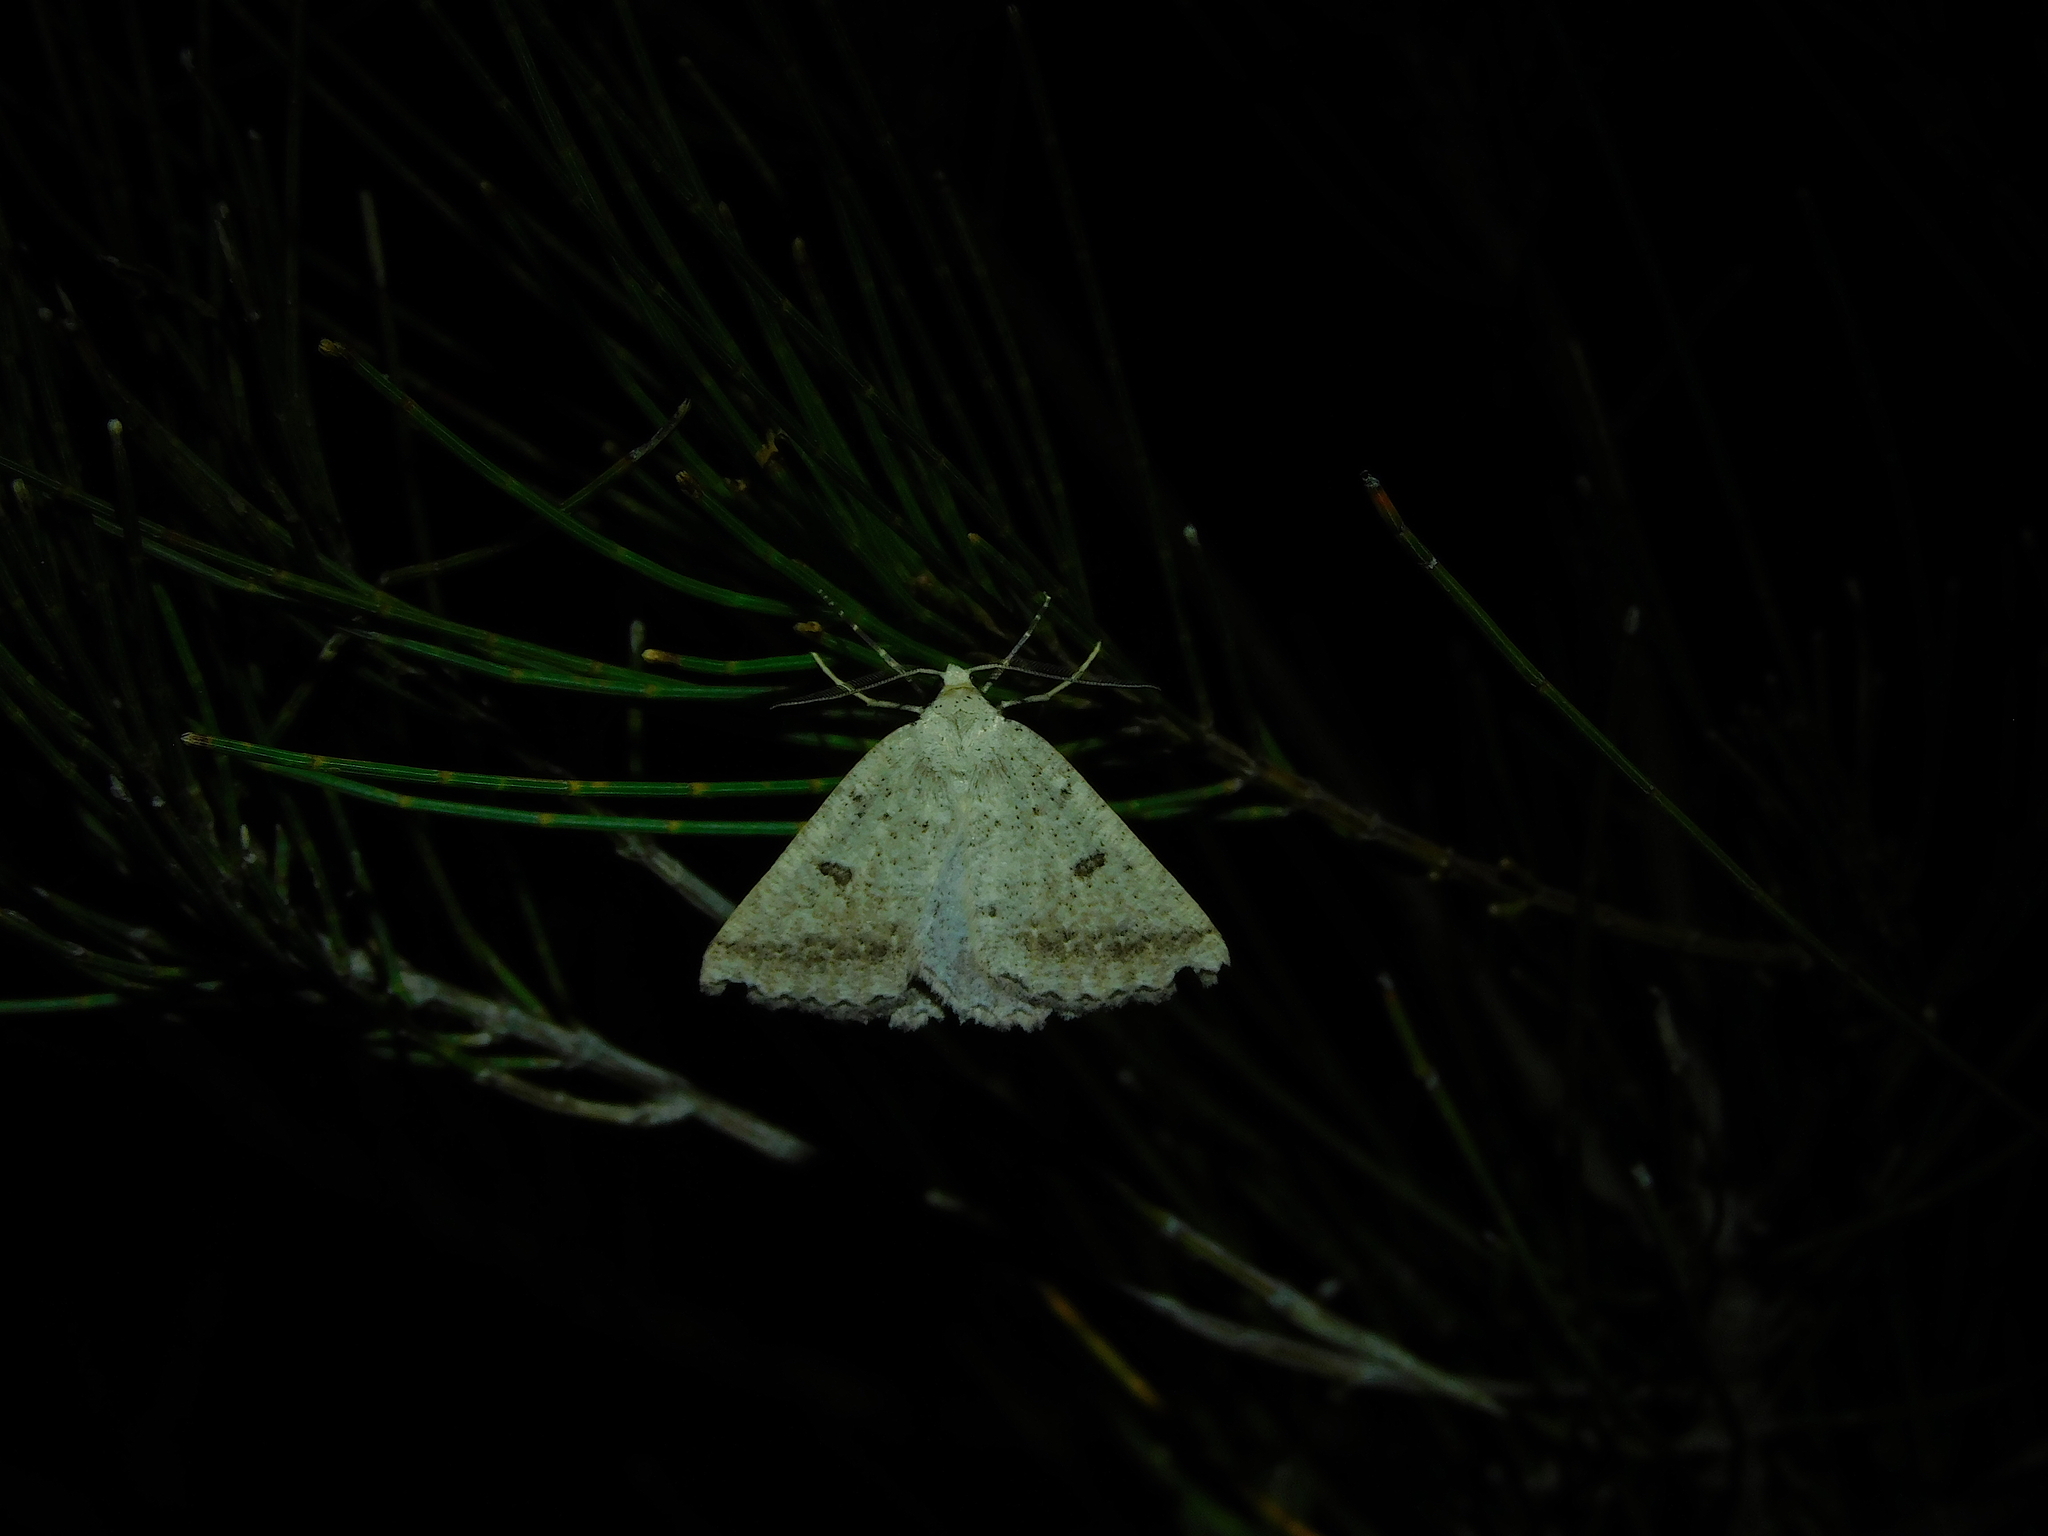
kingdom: Animalia
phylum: Arthropoda
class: Insecta
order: Lepidoptera
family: Geometridae
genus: Amelora
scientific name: Amelora zophopasta
